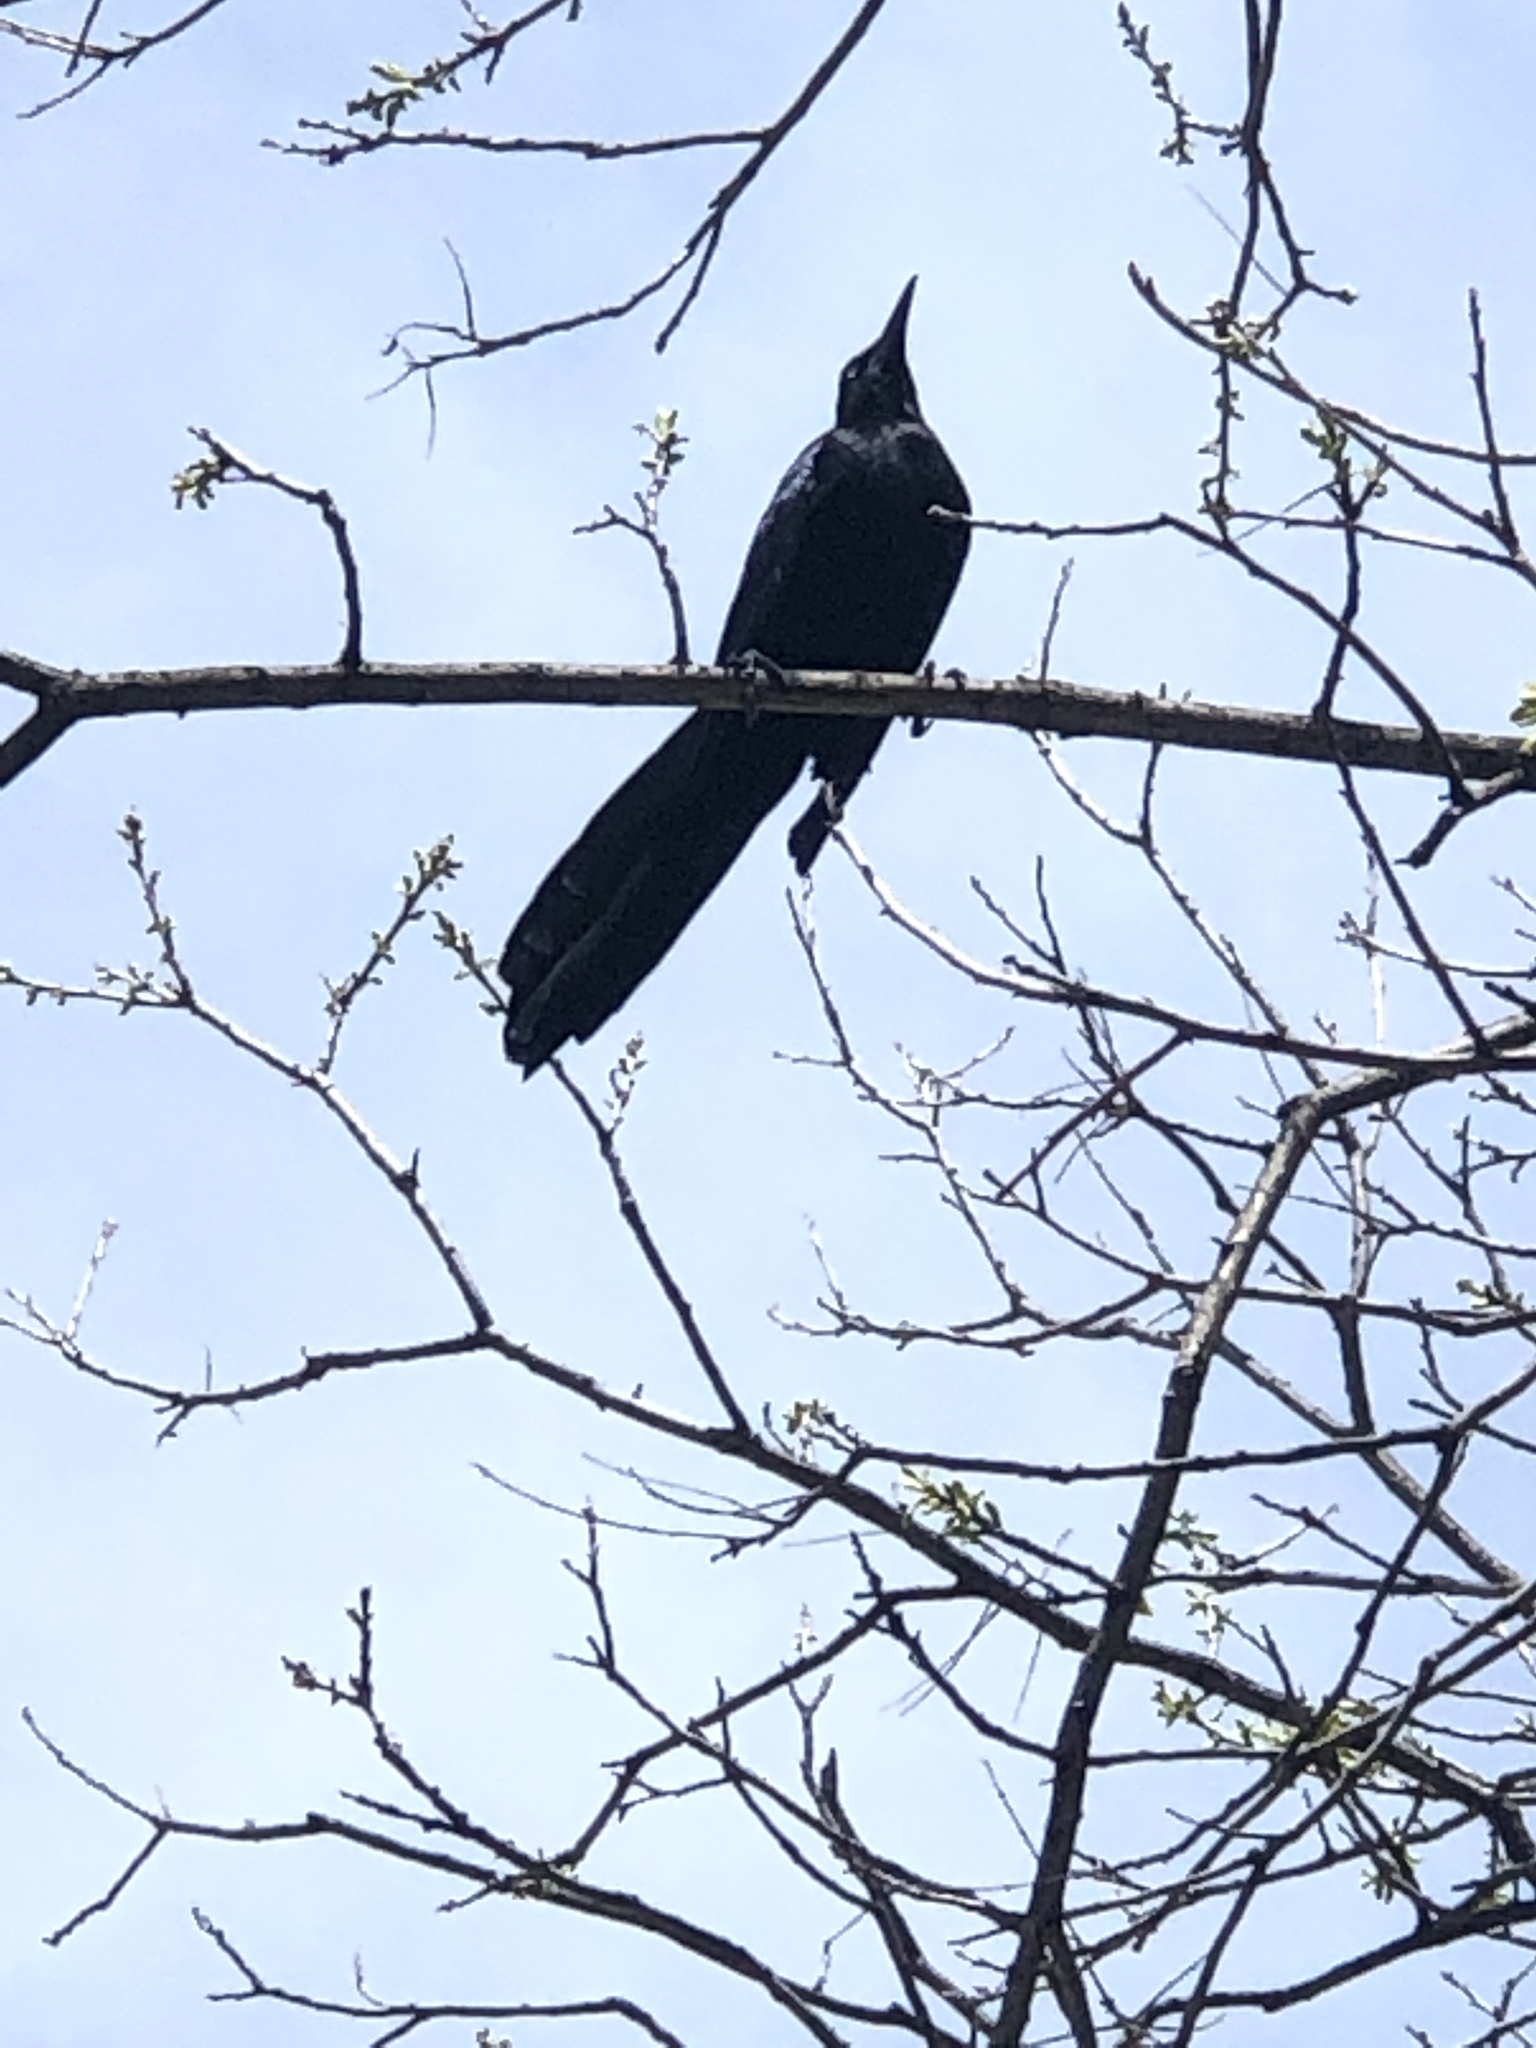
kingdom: Animalia
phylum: Chordata
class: Aves
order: Passeriformes
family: Icteridae
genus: Quiscalus
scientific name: Quiscalus mexicanus
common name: Great-tailed grackle
